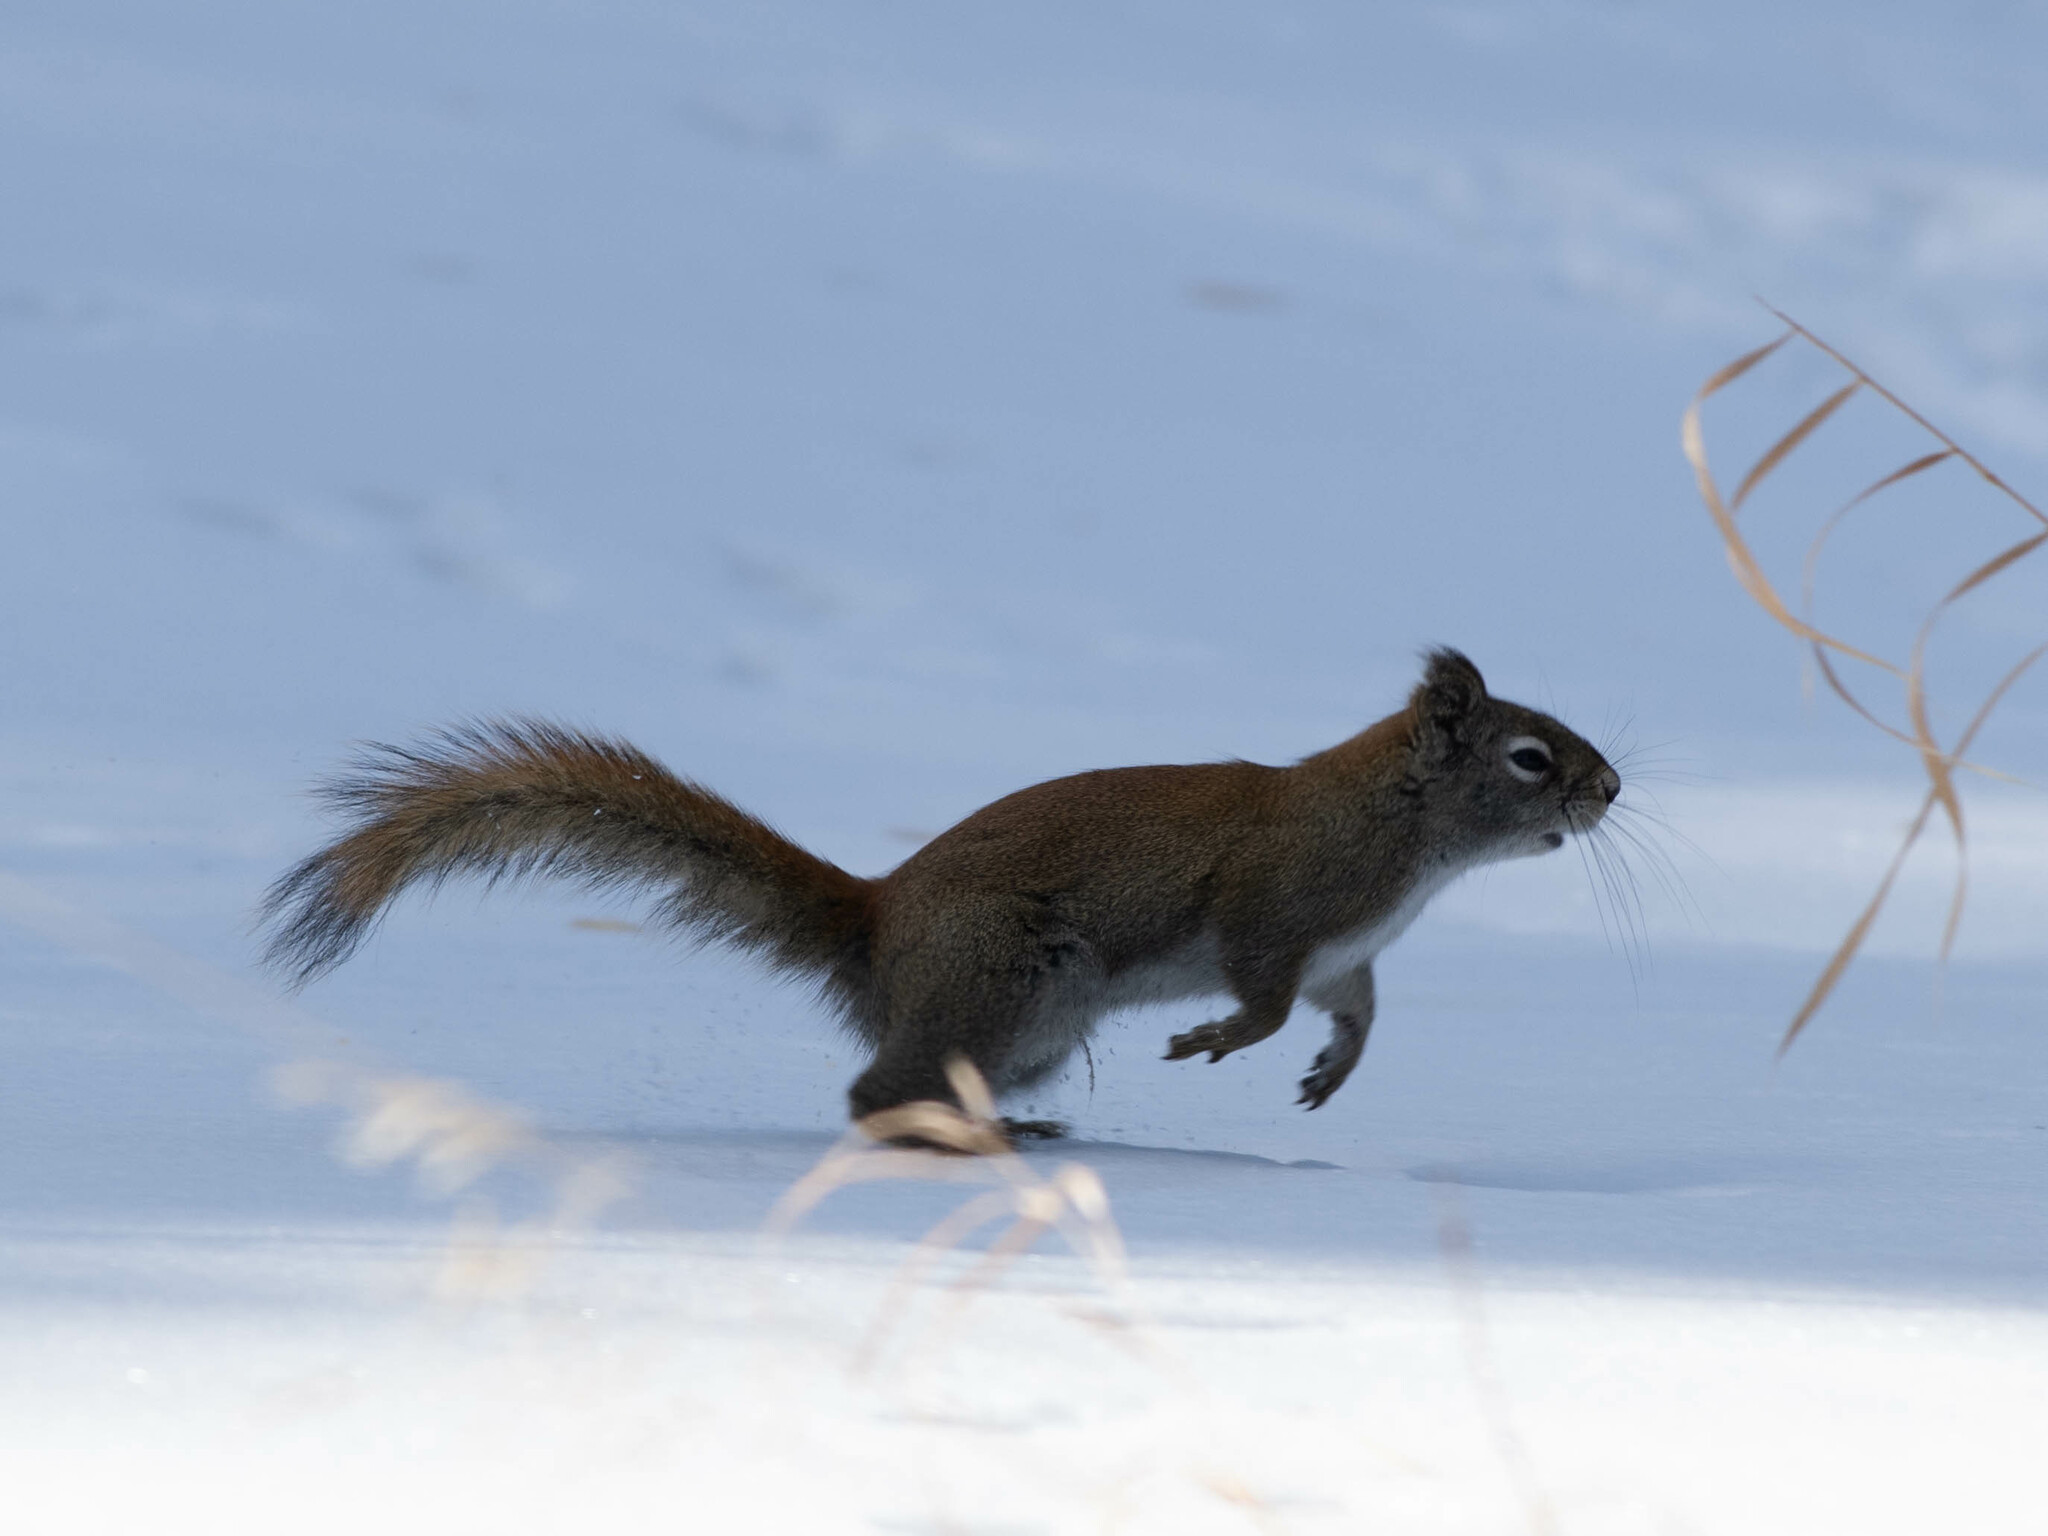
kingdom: Animalia
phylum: Chordata
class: Mammalia
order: Rodentia
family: Sciuridae
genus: Tamiasciurus
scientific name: Tamiasciurus hudsonicus
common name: Red squirrel
